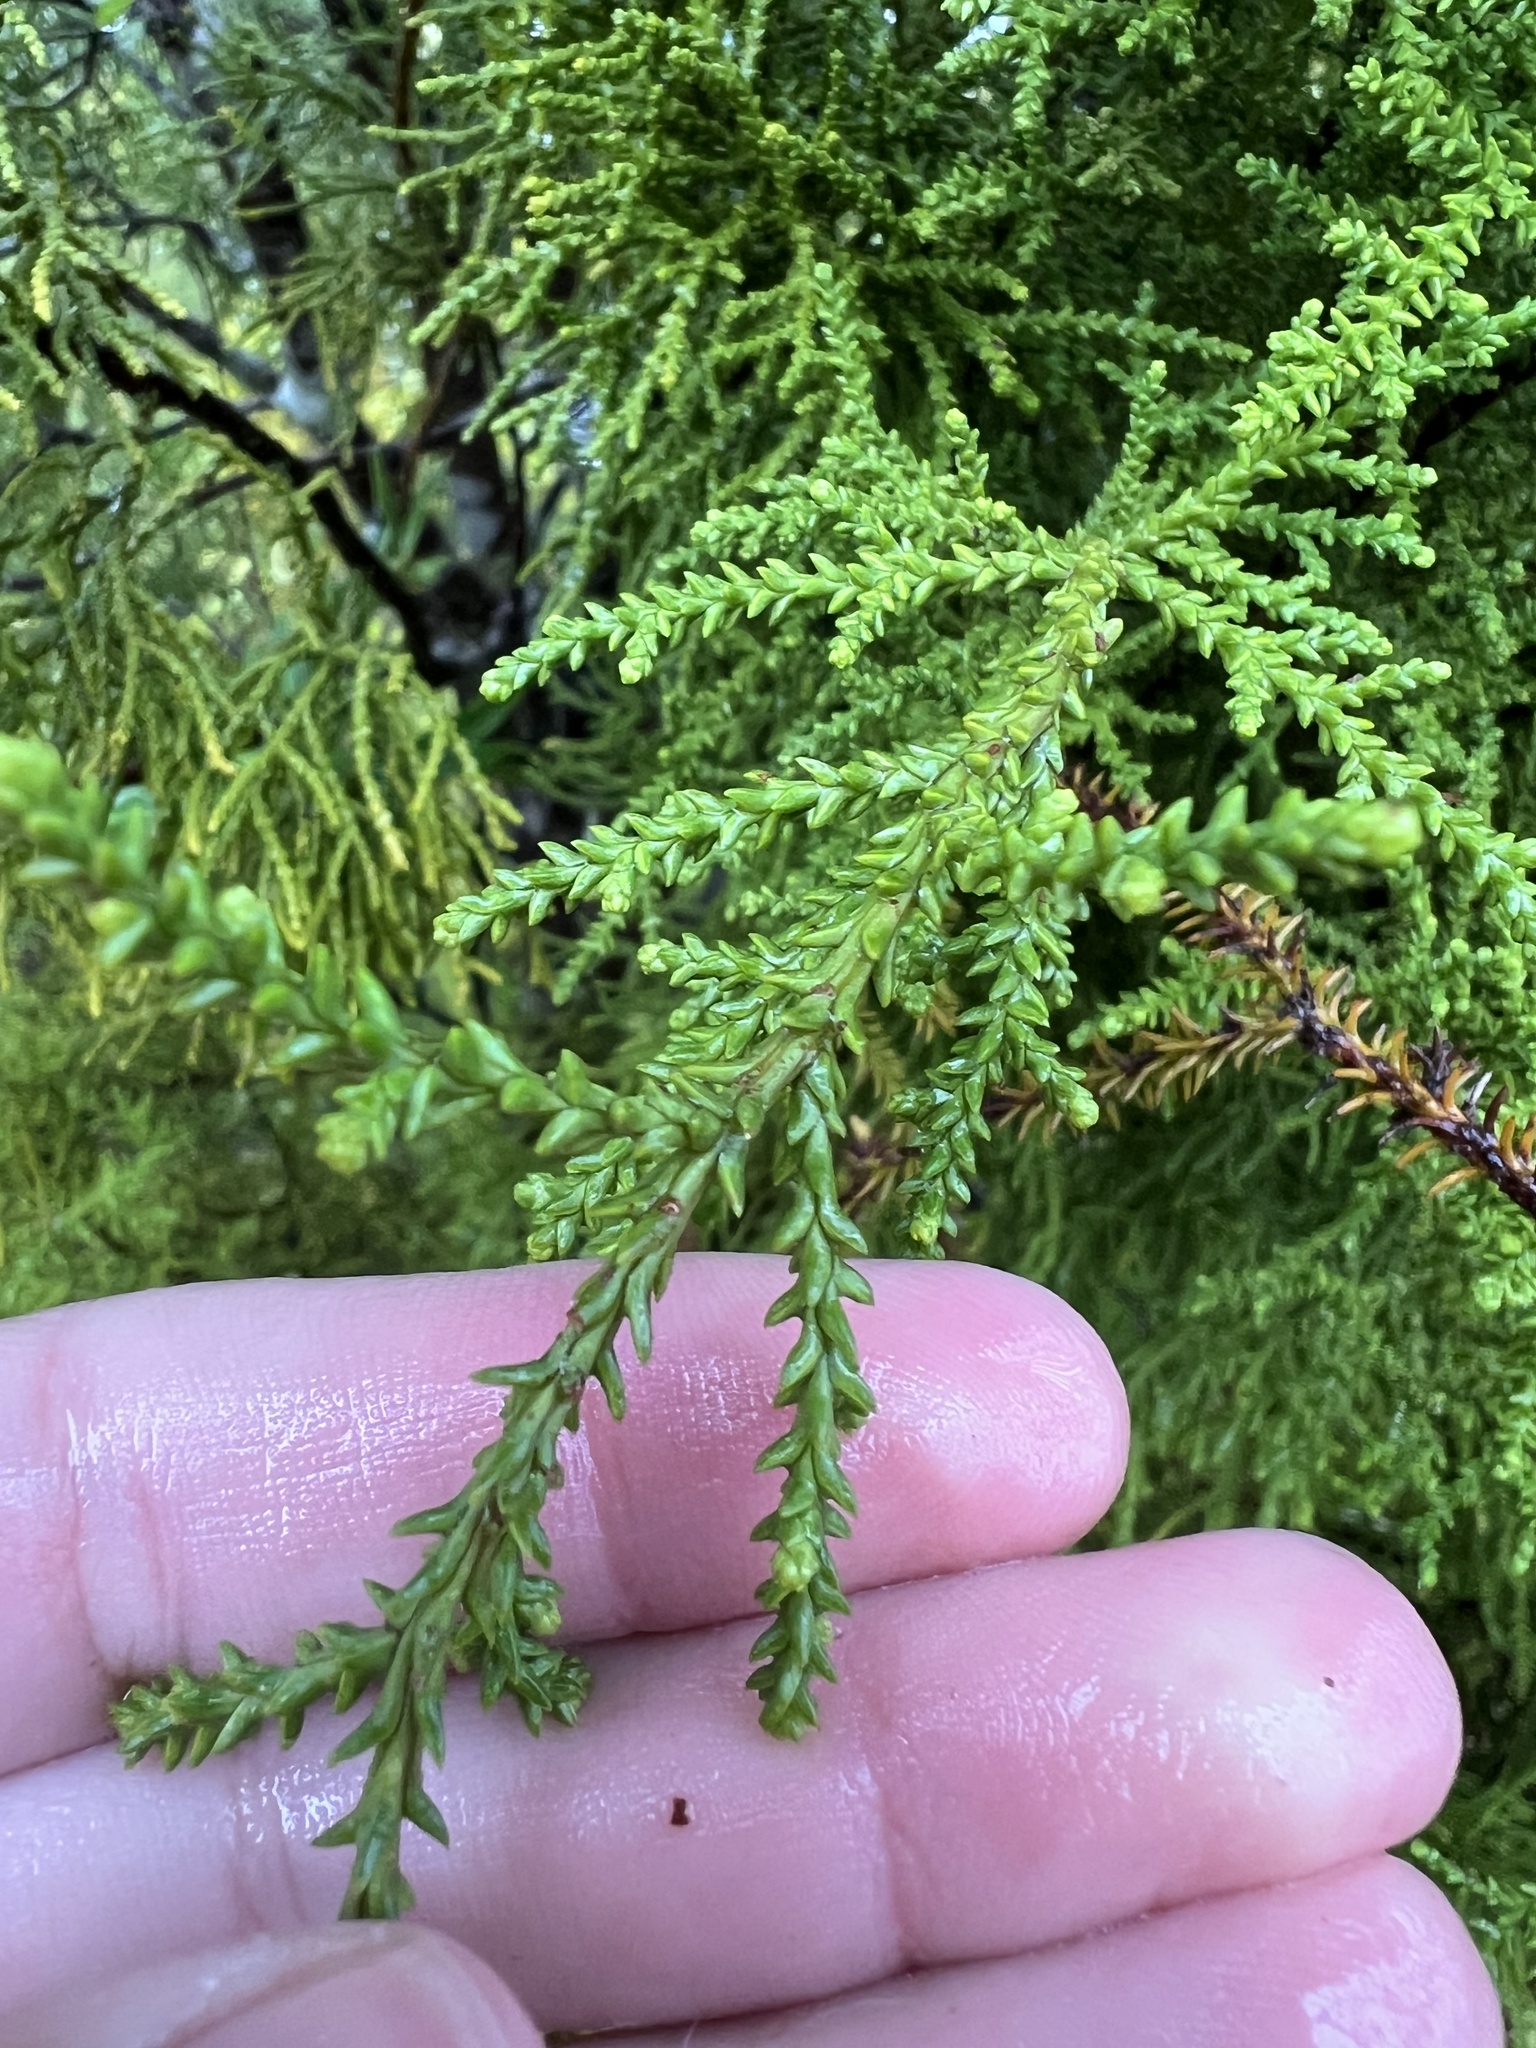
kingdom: Plantae
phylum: Tracheophyta
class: Pinopsida
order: Pinales
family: Podocarpaceae
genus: Lepidothamnus
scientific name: Lepidothamnus intermedius
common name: Yellow silver pine
